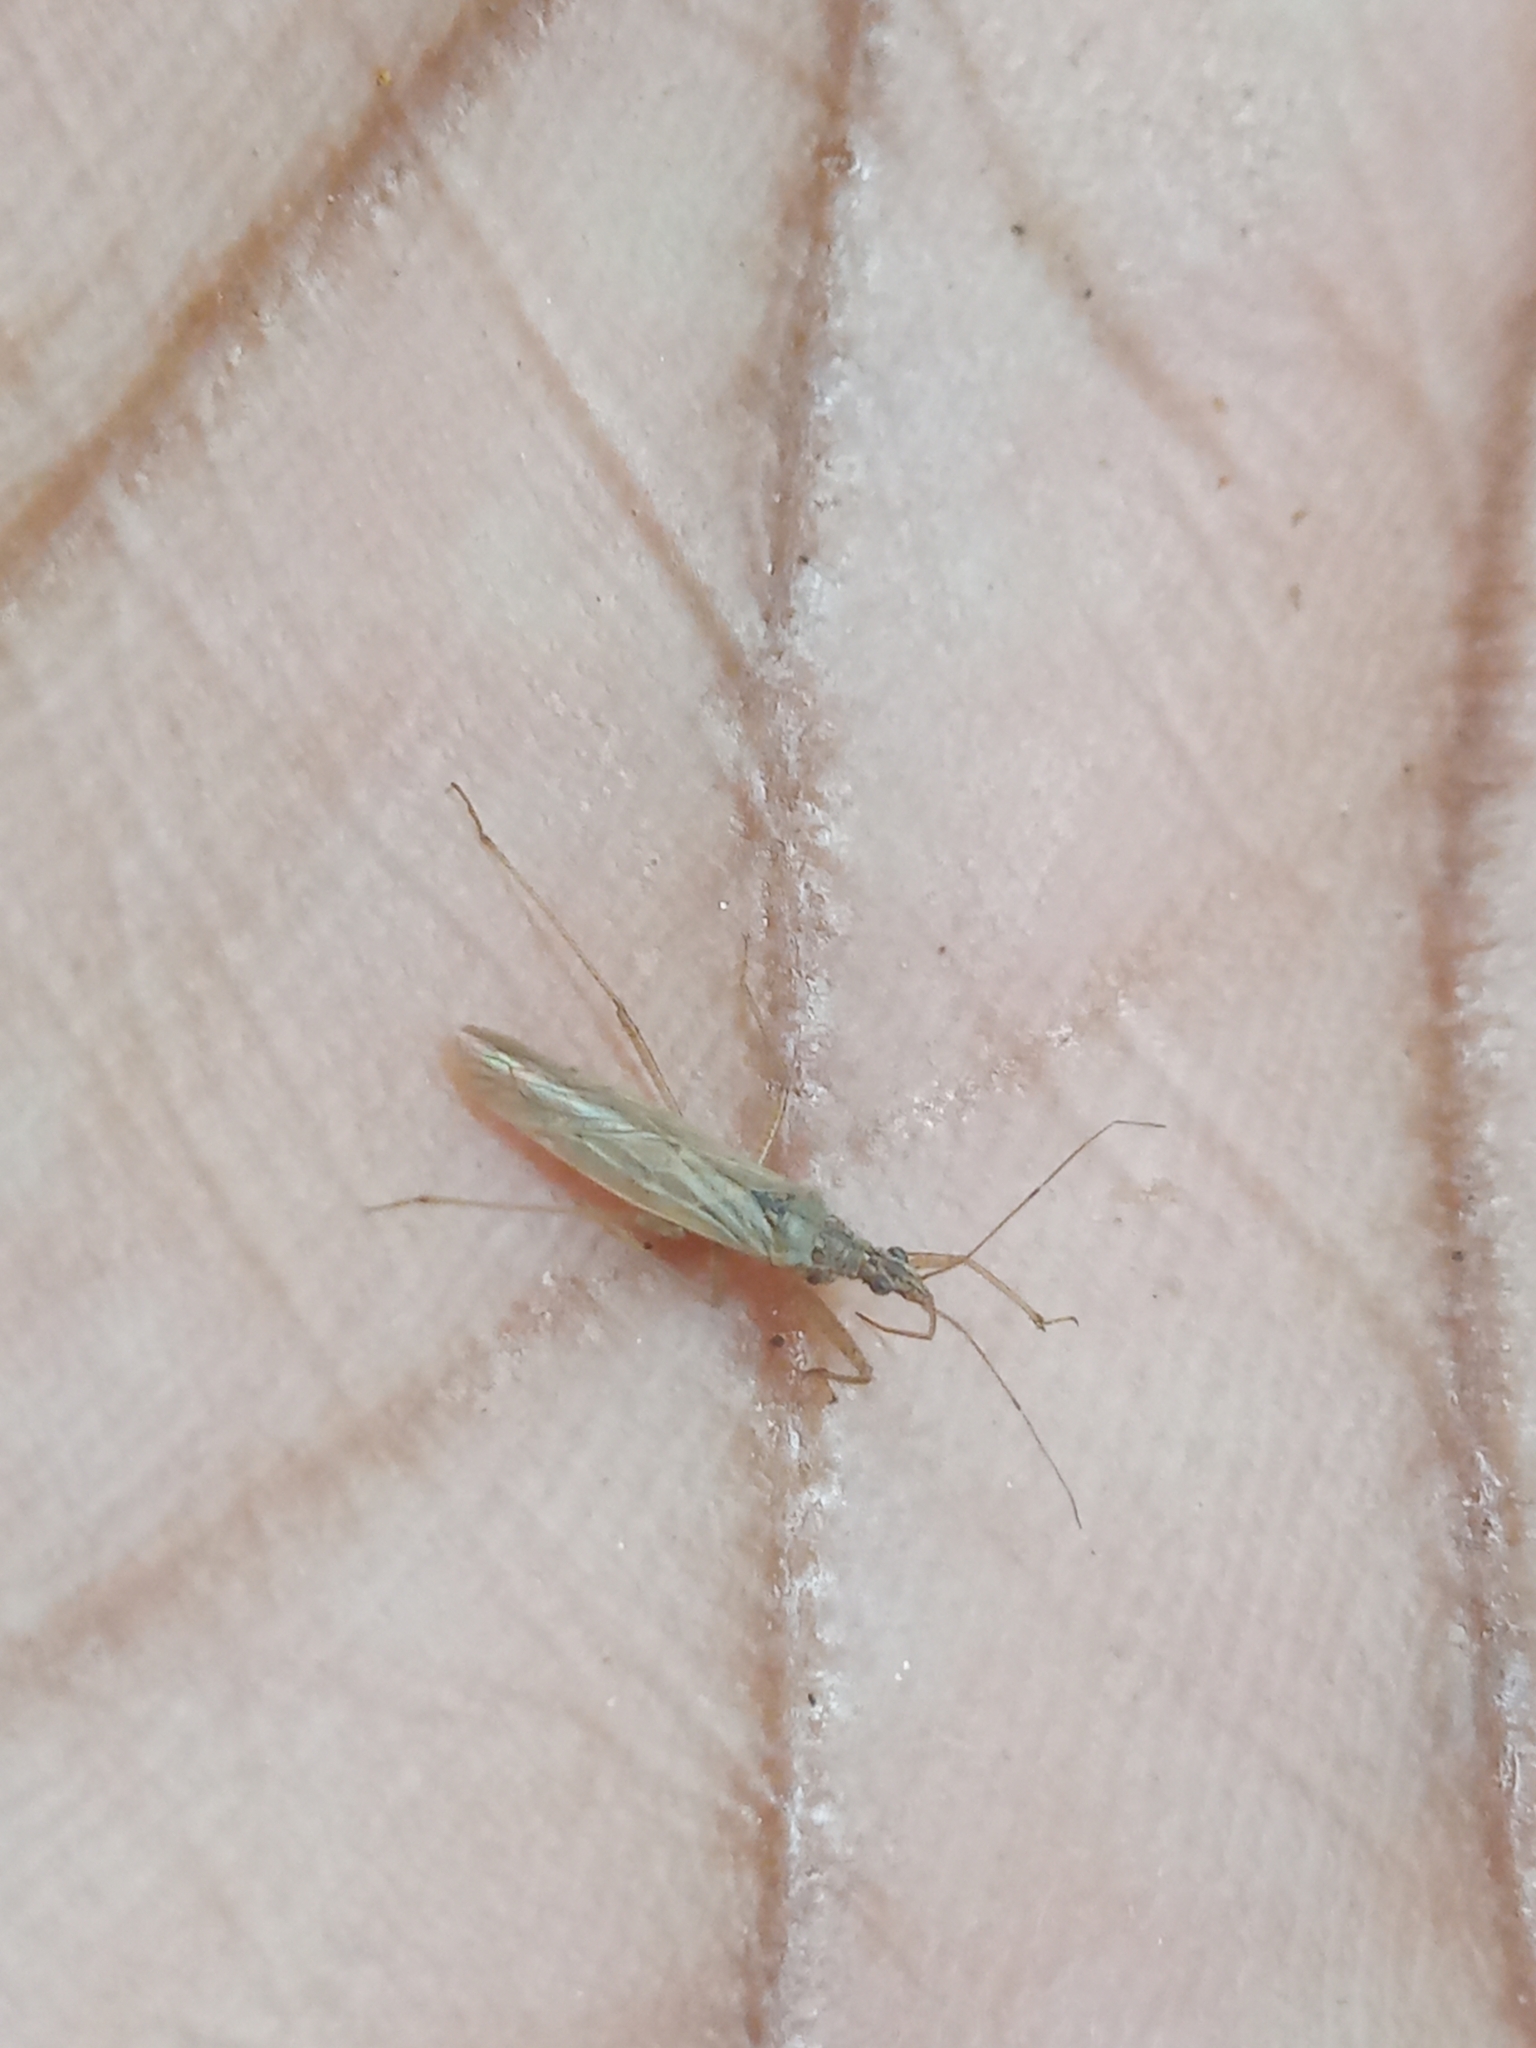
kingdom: Animalia
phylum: Arthropoda
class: Insecta
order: Hemiptera
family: Nabidae
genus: Nabis
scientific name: Nabis capsiformis
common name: Pale damsel bug
